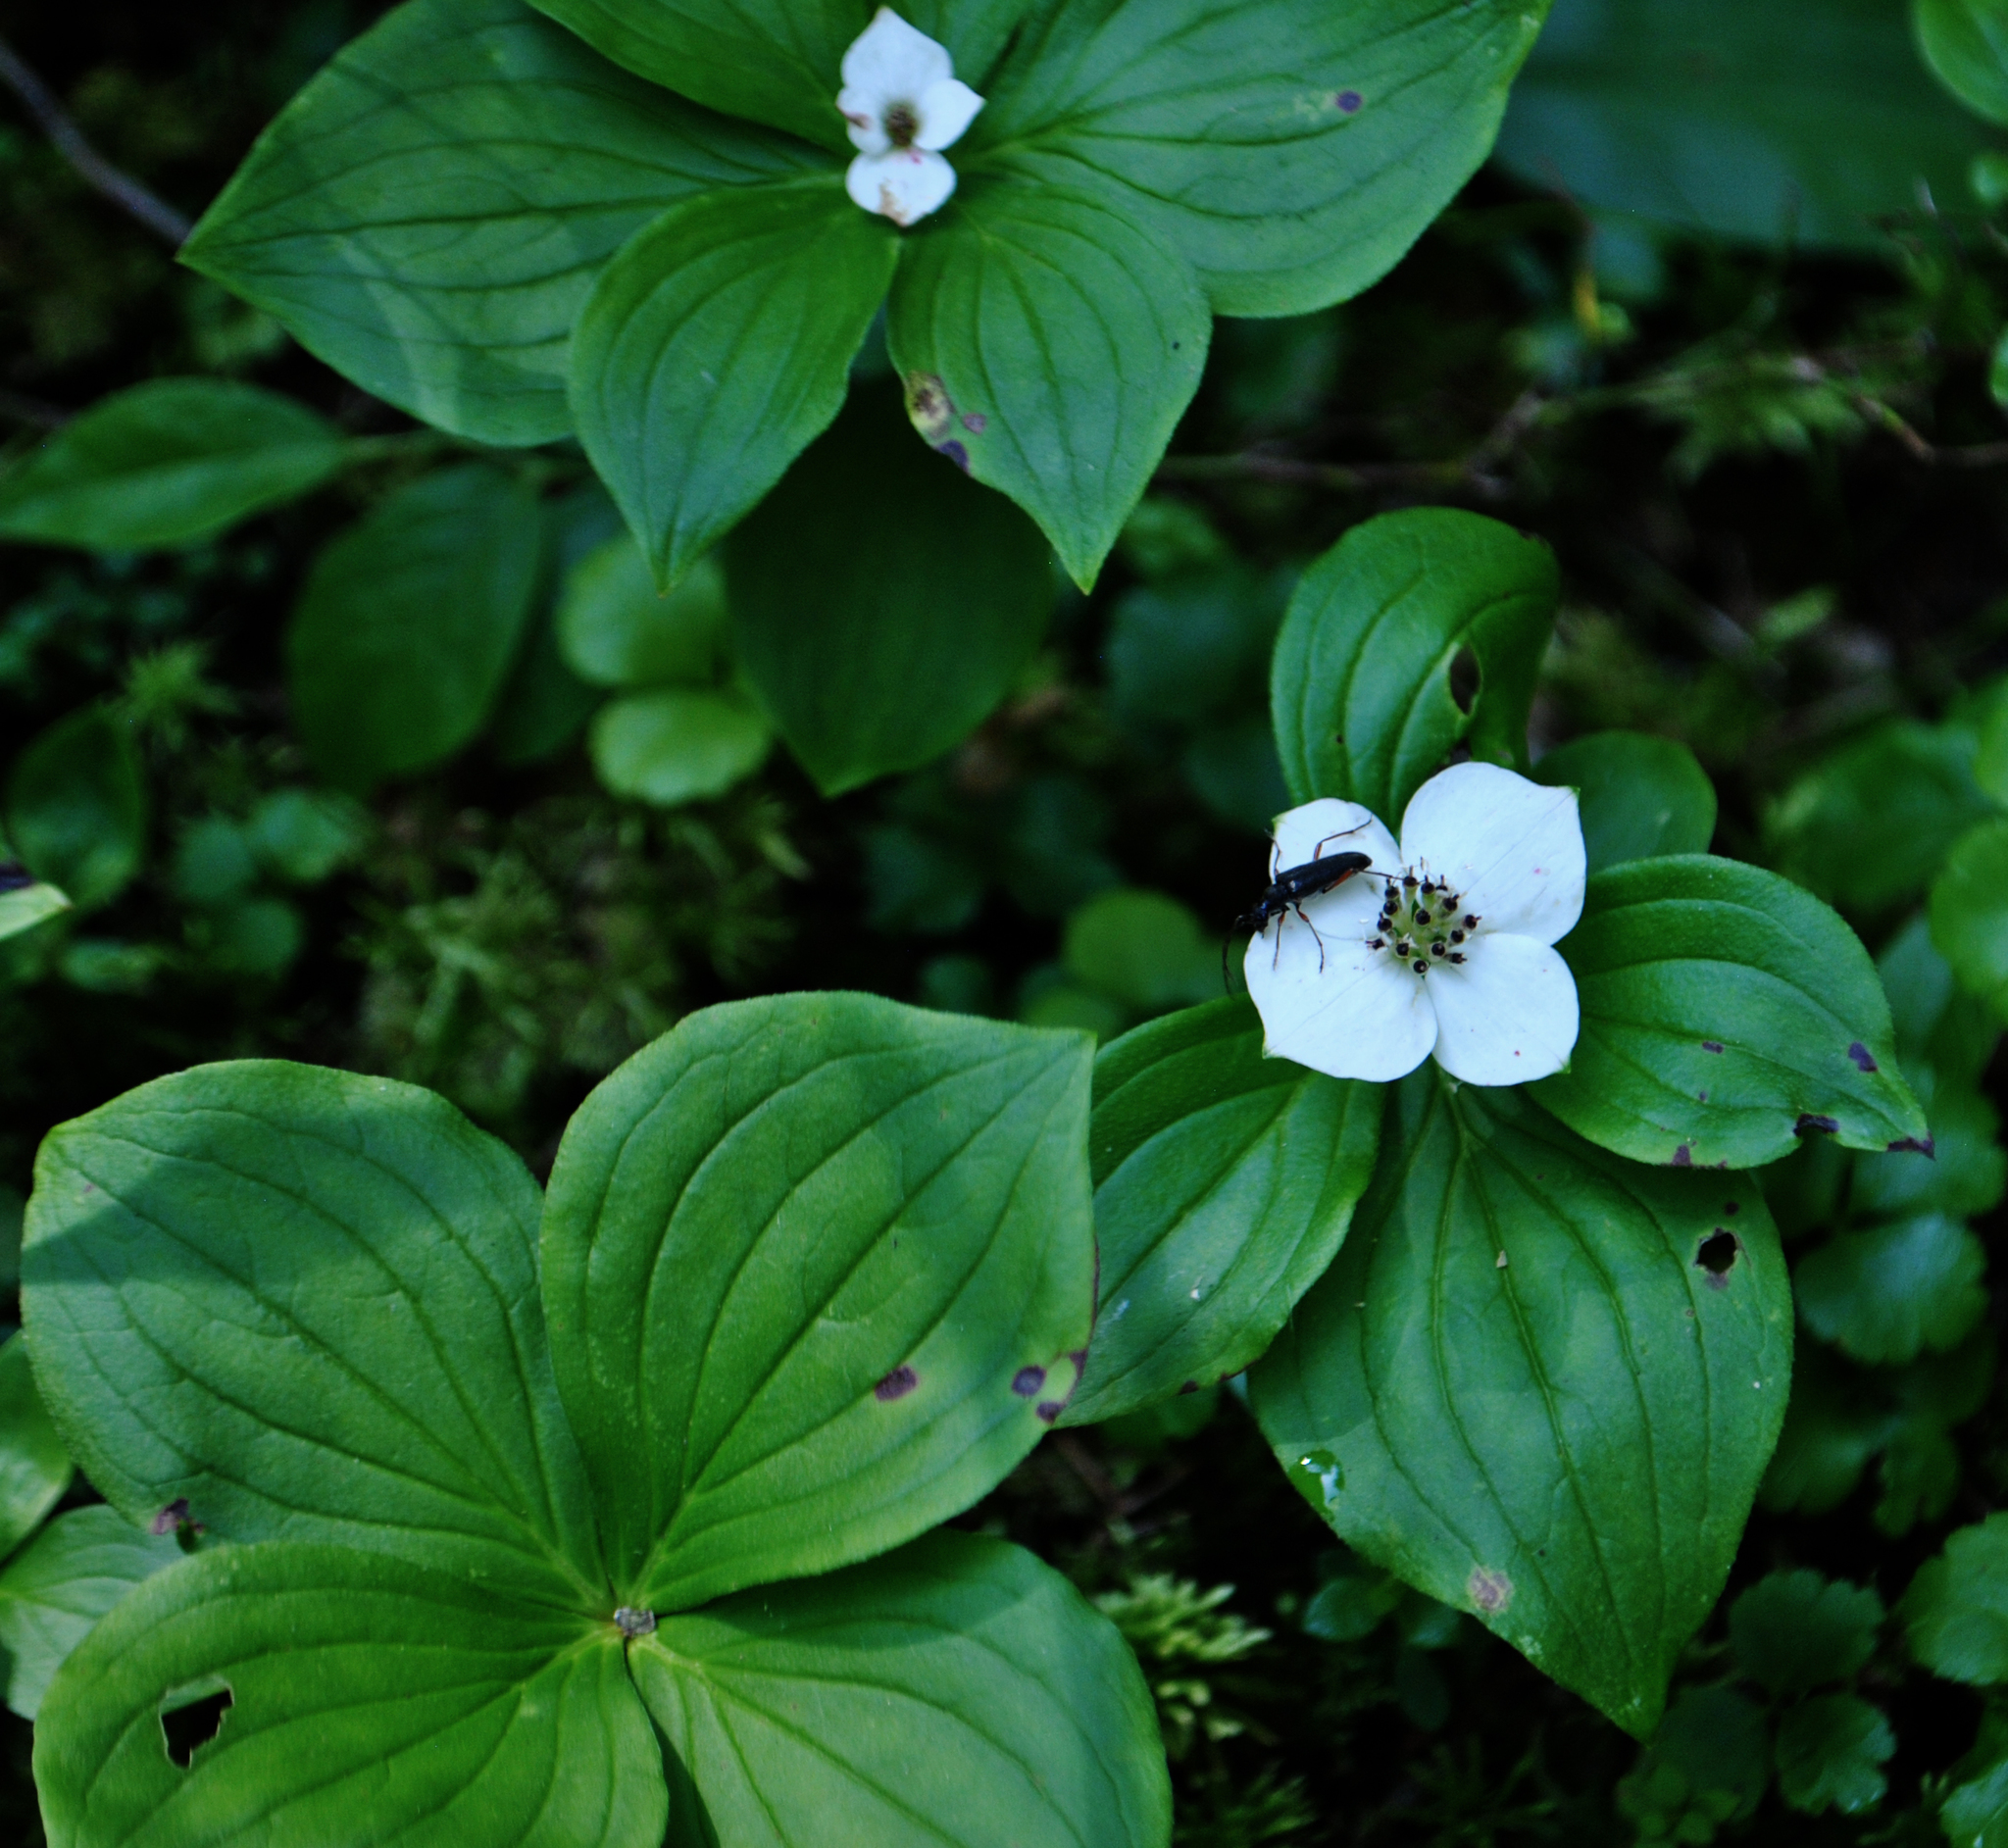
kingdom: Plantae
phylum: Tracheophyta
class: Magnoliopsida
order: Cornales
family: Cornaceae
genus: Cornus
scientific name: Cornus canadensis
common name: Creeping dogwood
